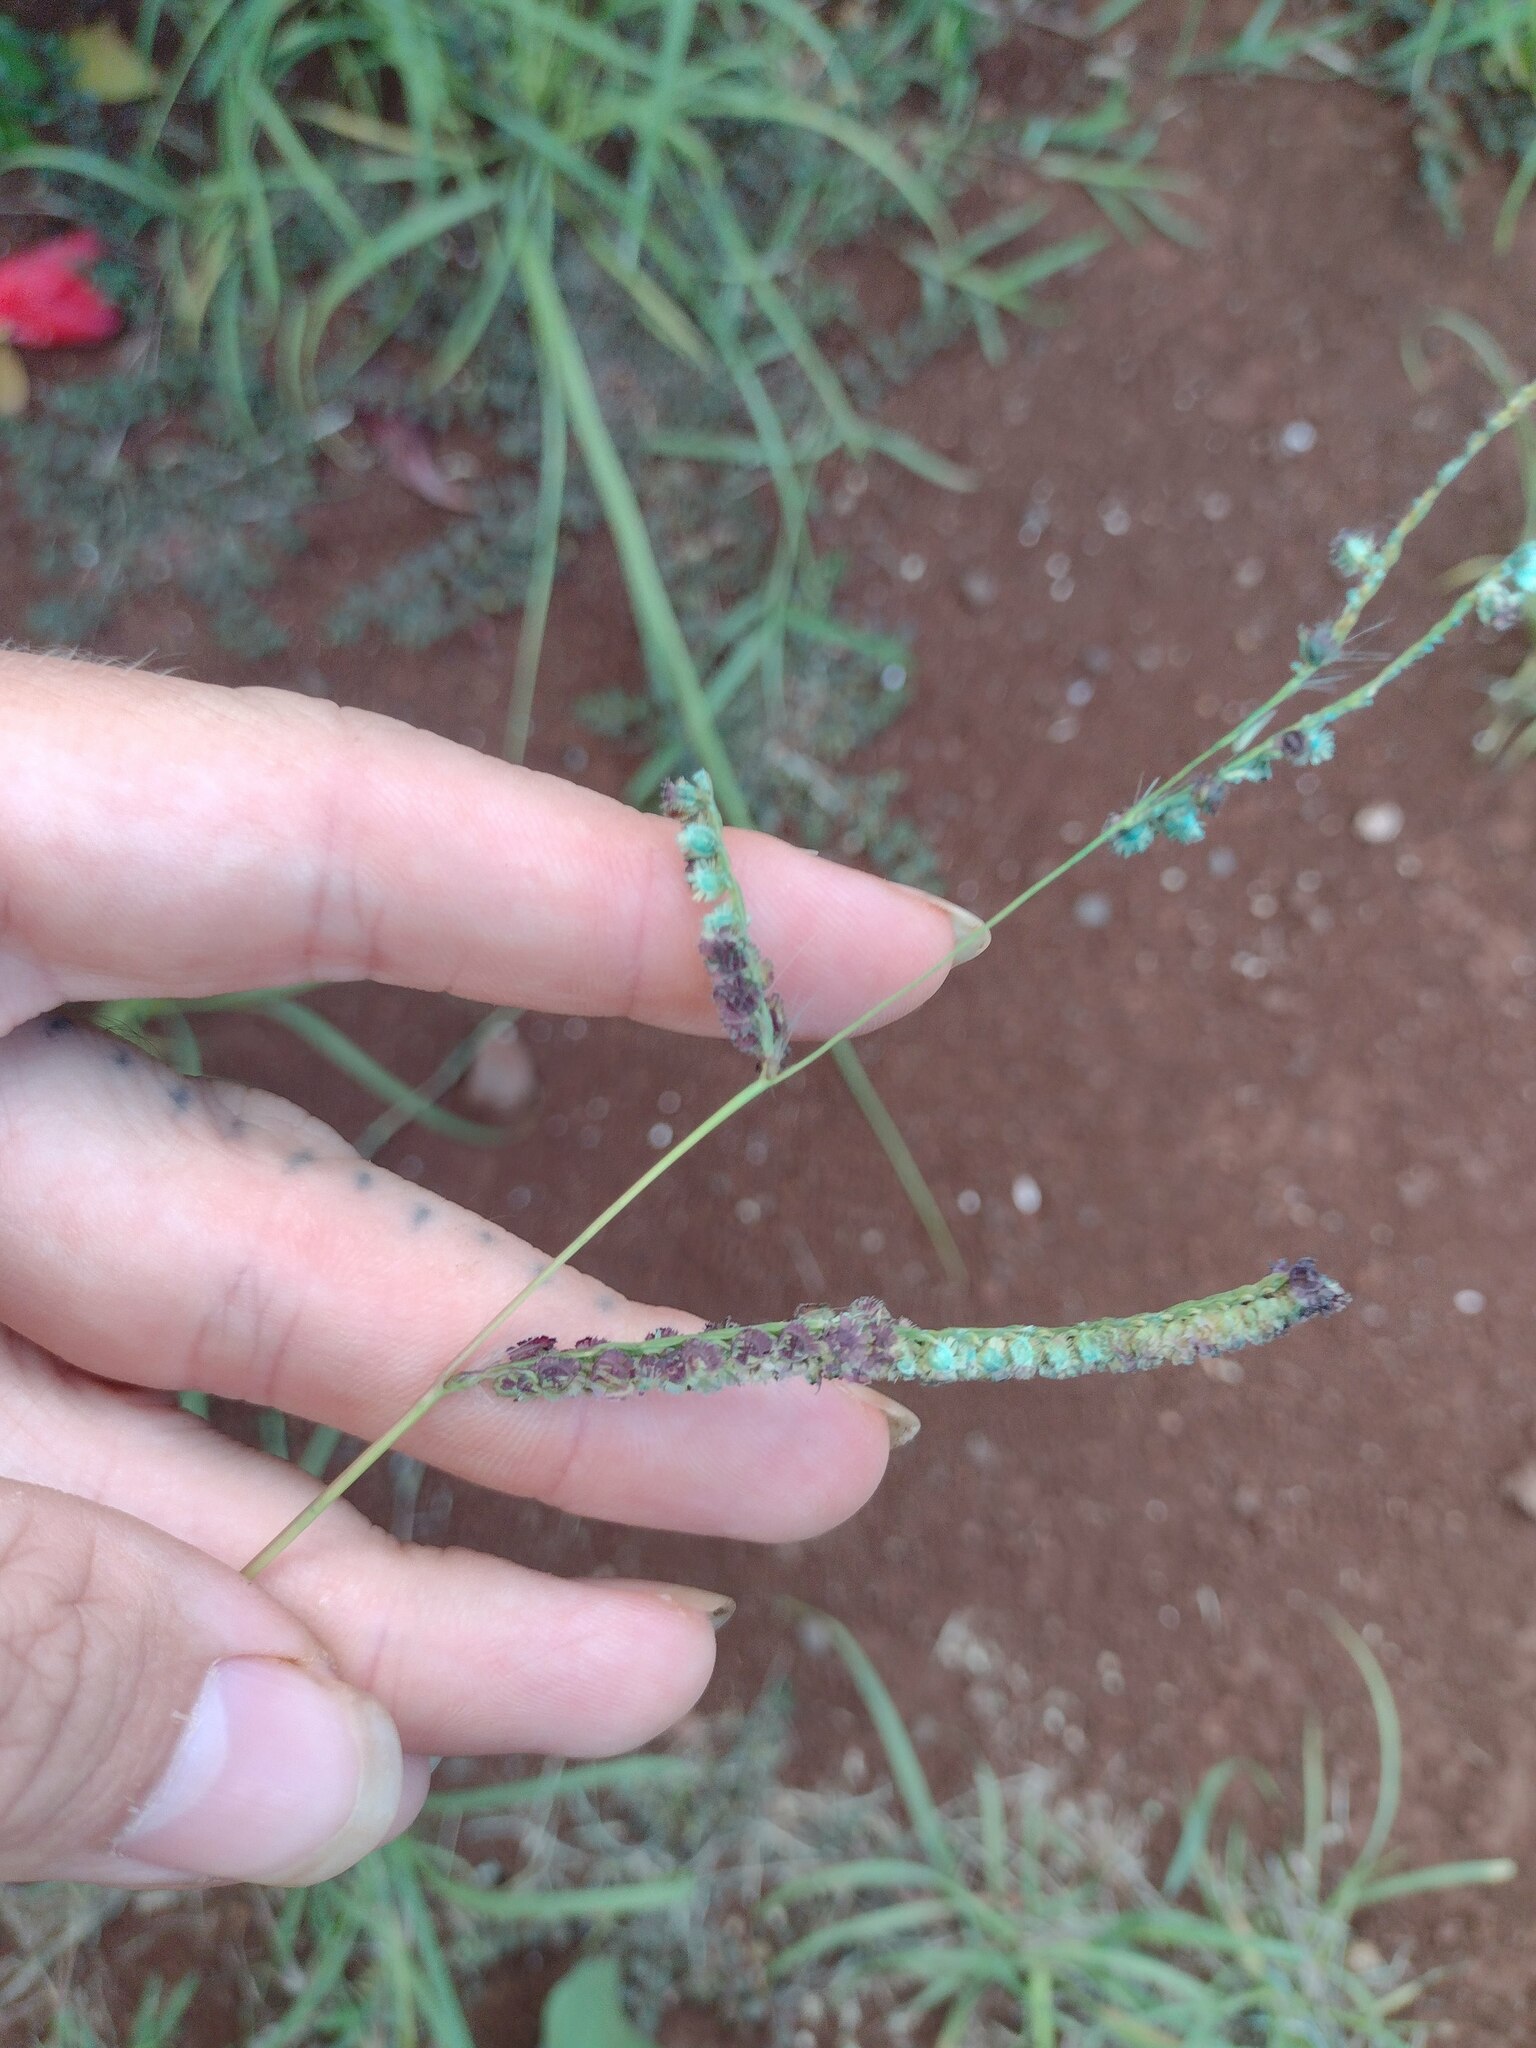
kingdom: Plantae
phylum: Tracheophyta
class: Liliopsida
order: Poales
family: Poaceae
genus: Paspalum
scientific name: Paspalum fimbriatum
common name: Panama crowngrass
